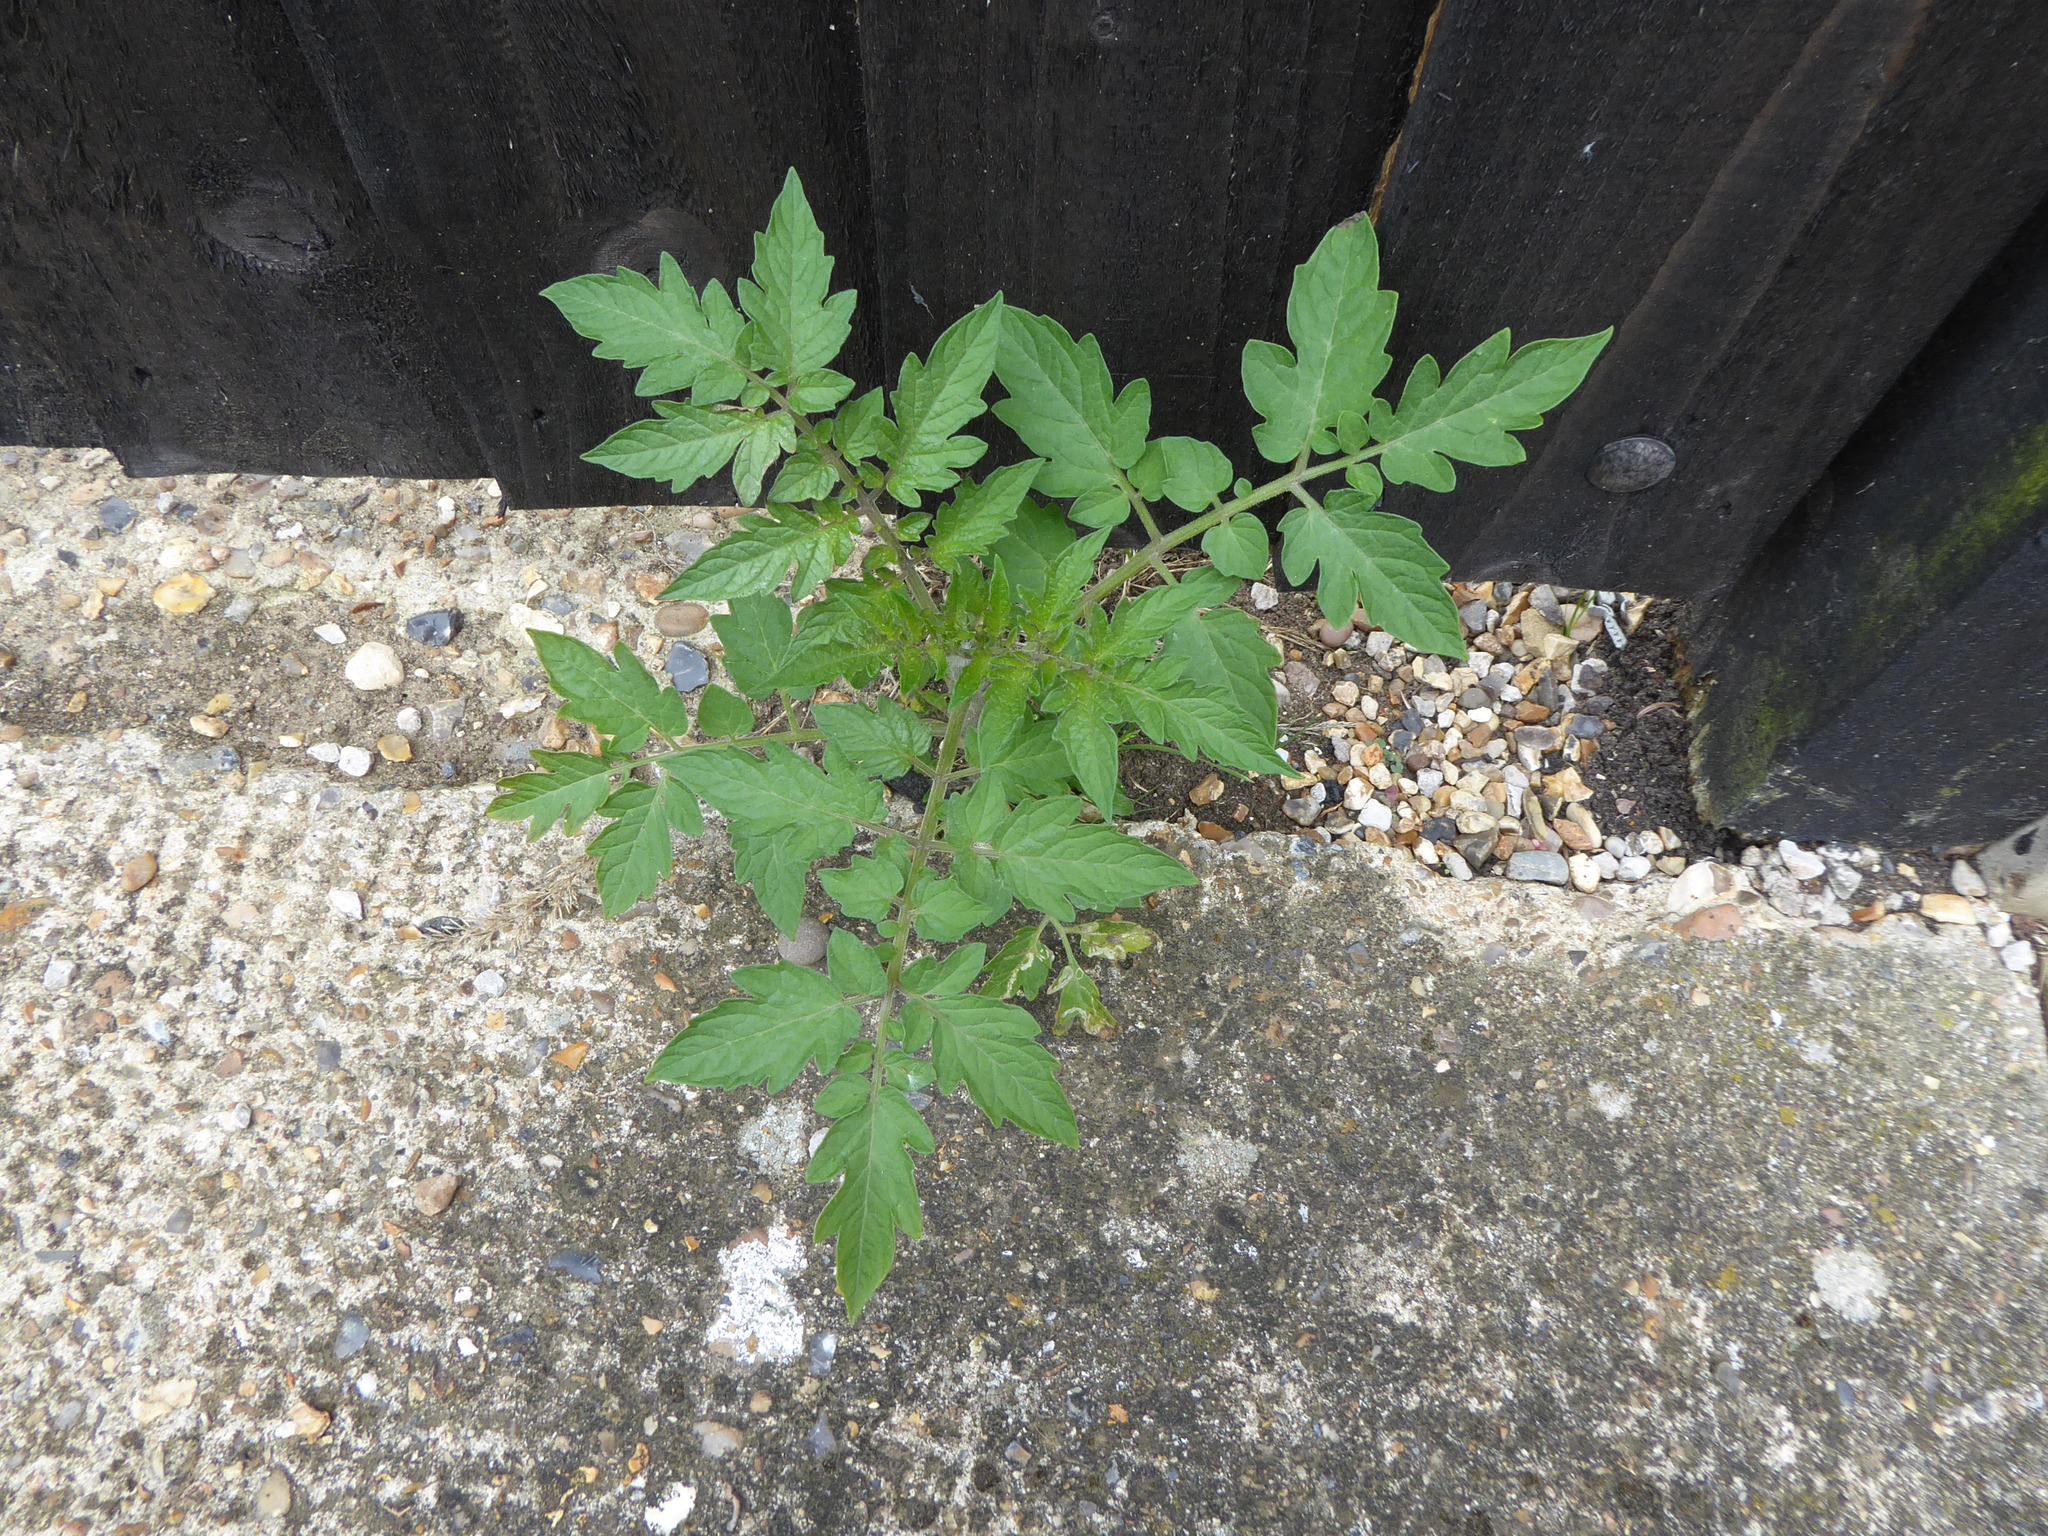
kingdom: Plantae
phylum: Tracheophyta
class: Magnoliopsida
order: Solanales
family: Solanaceae
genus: Solanum
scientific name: Solanum lycopersicum
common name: Garden tomato
